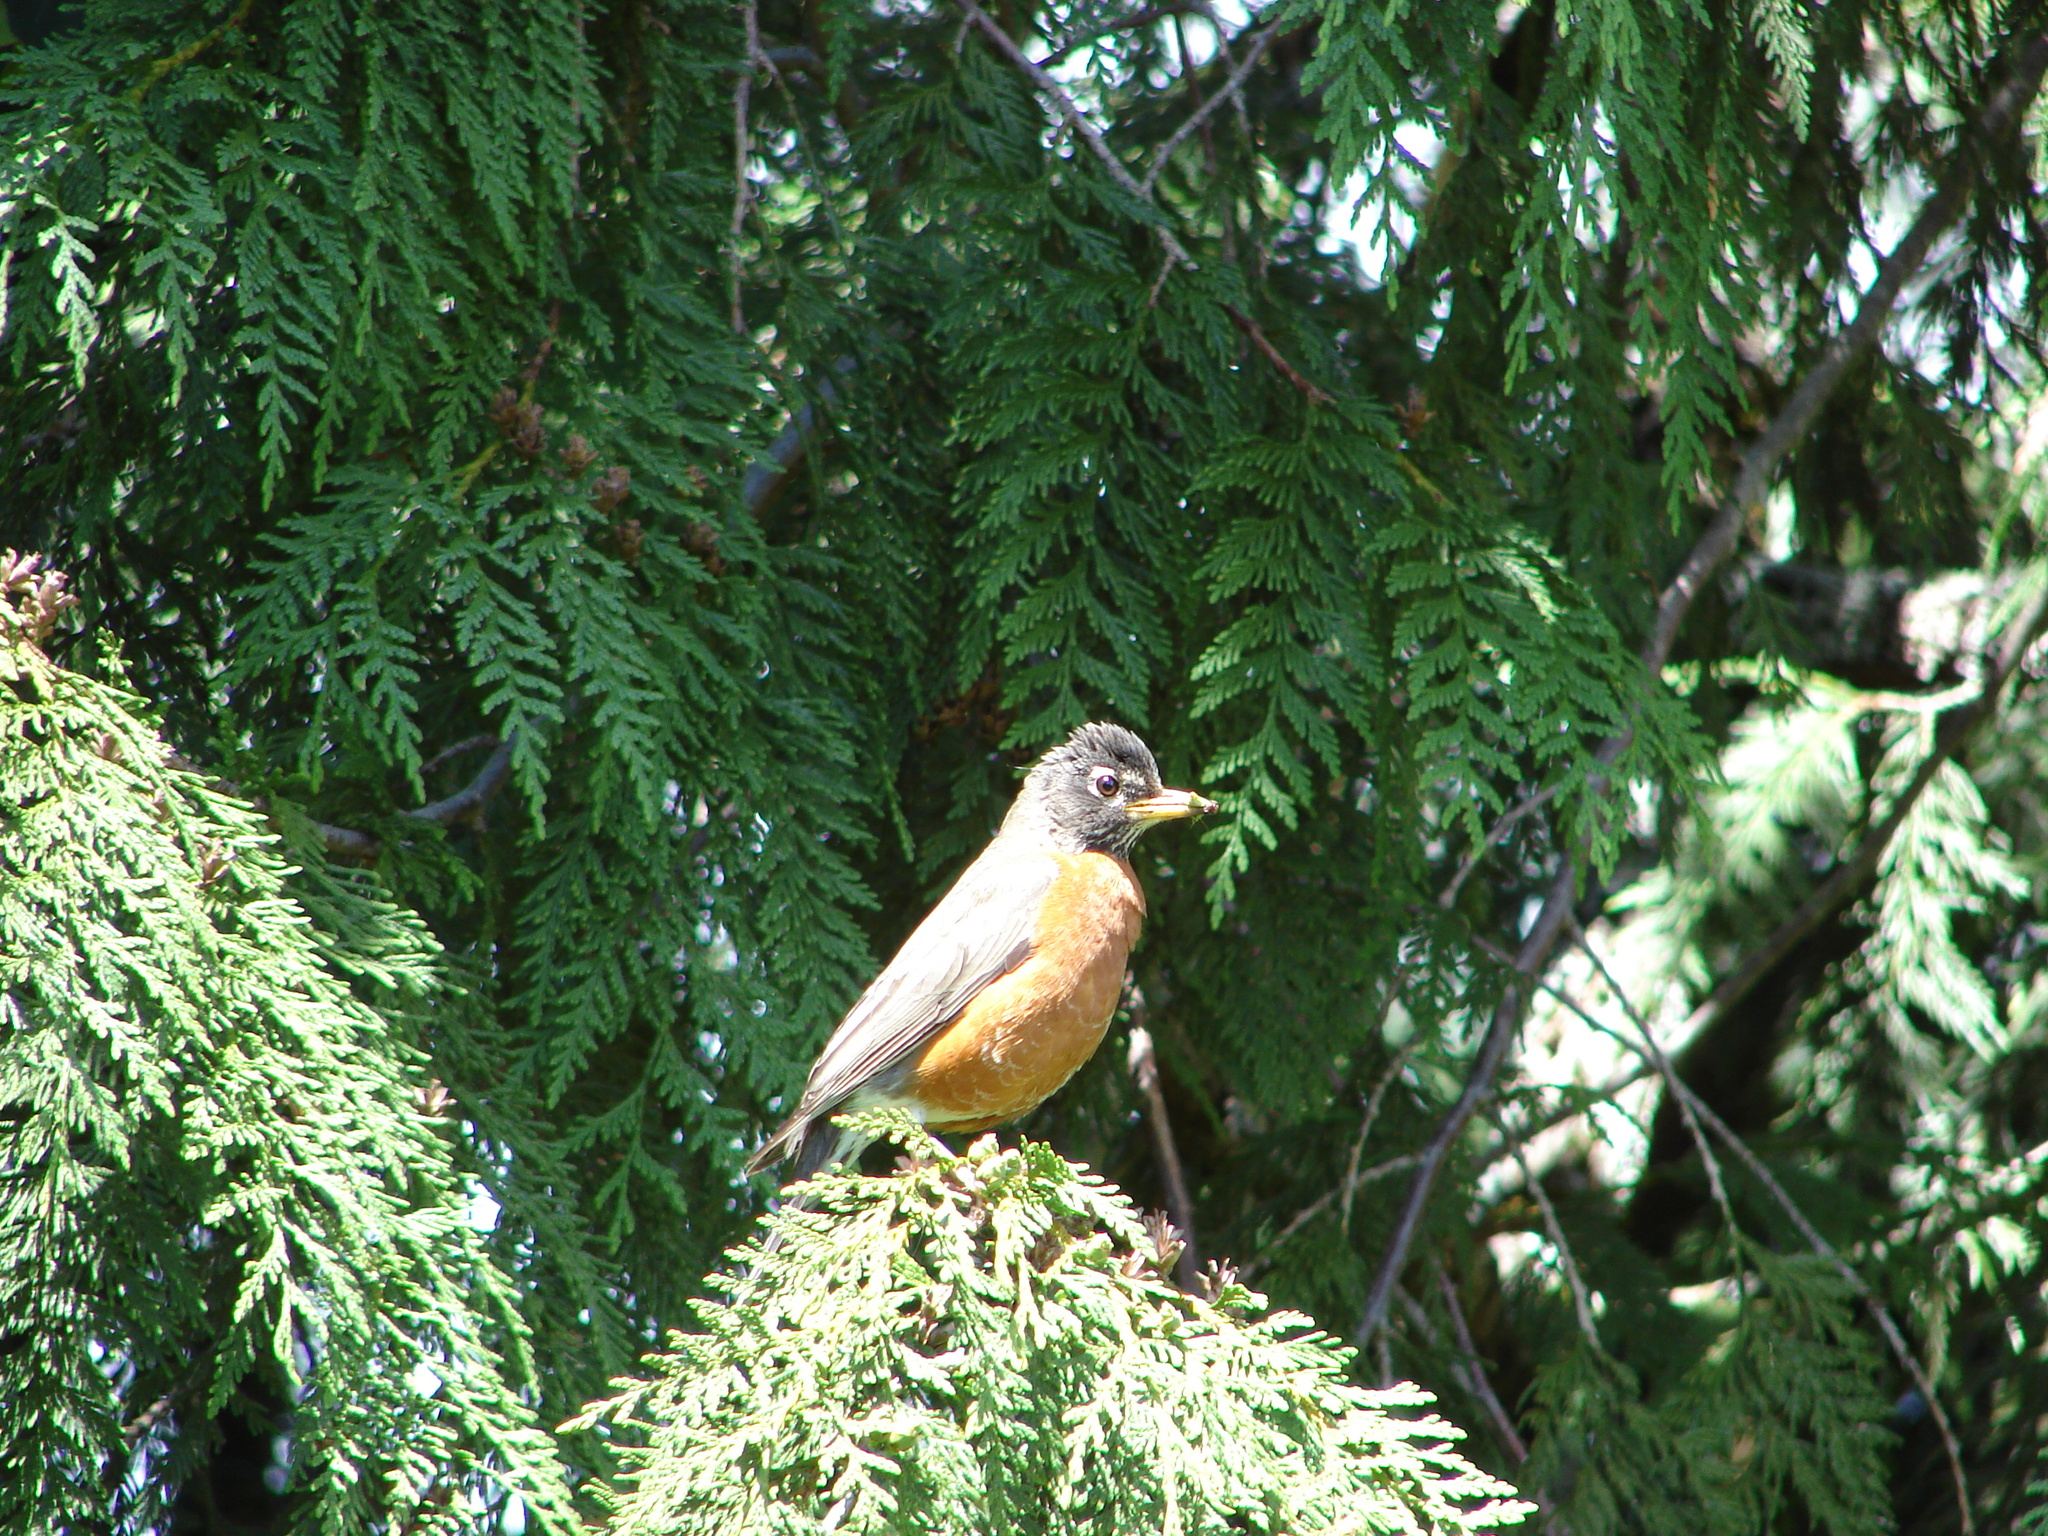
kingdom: Animalia
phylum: Chordata
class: Aves
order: Passeriformes
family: Turdidae
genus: Turdus
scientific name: Turdus migratorius
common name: American robin
